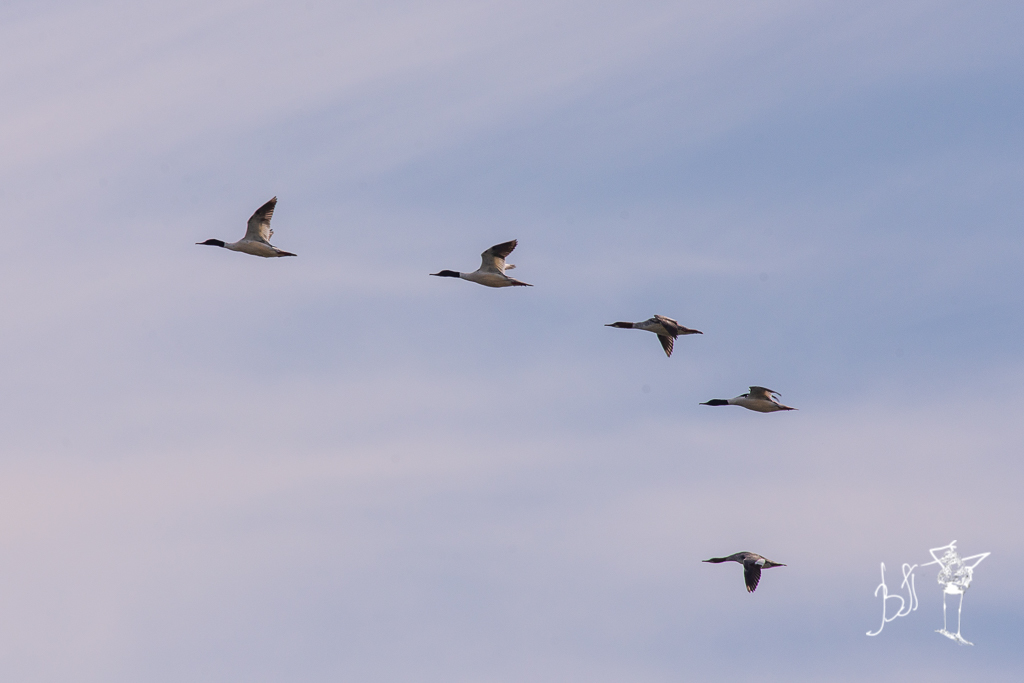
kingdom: Animalia
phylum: Chordata
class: Aves
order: Anseriformes
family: Anatidae
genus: Mergus
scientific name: Mergus merganser
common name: Common merganser
